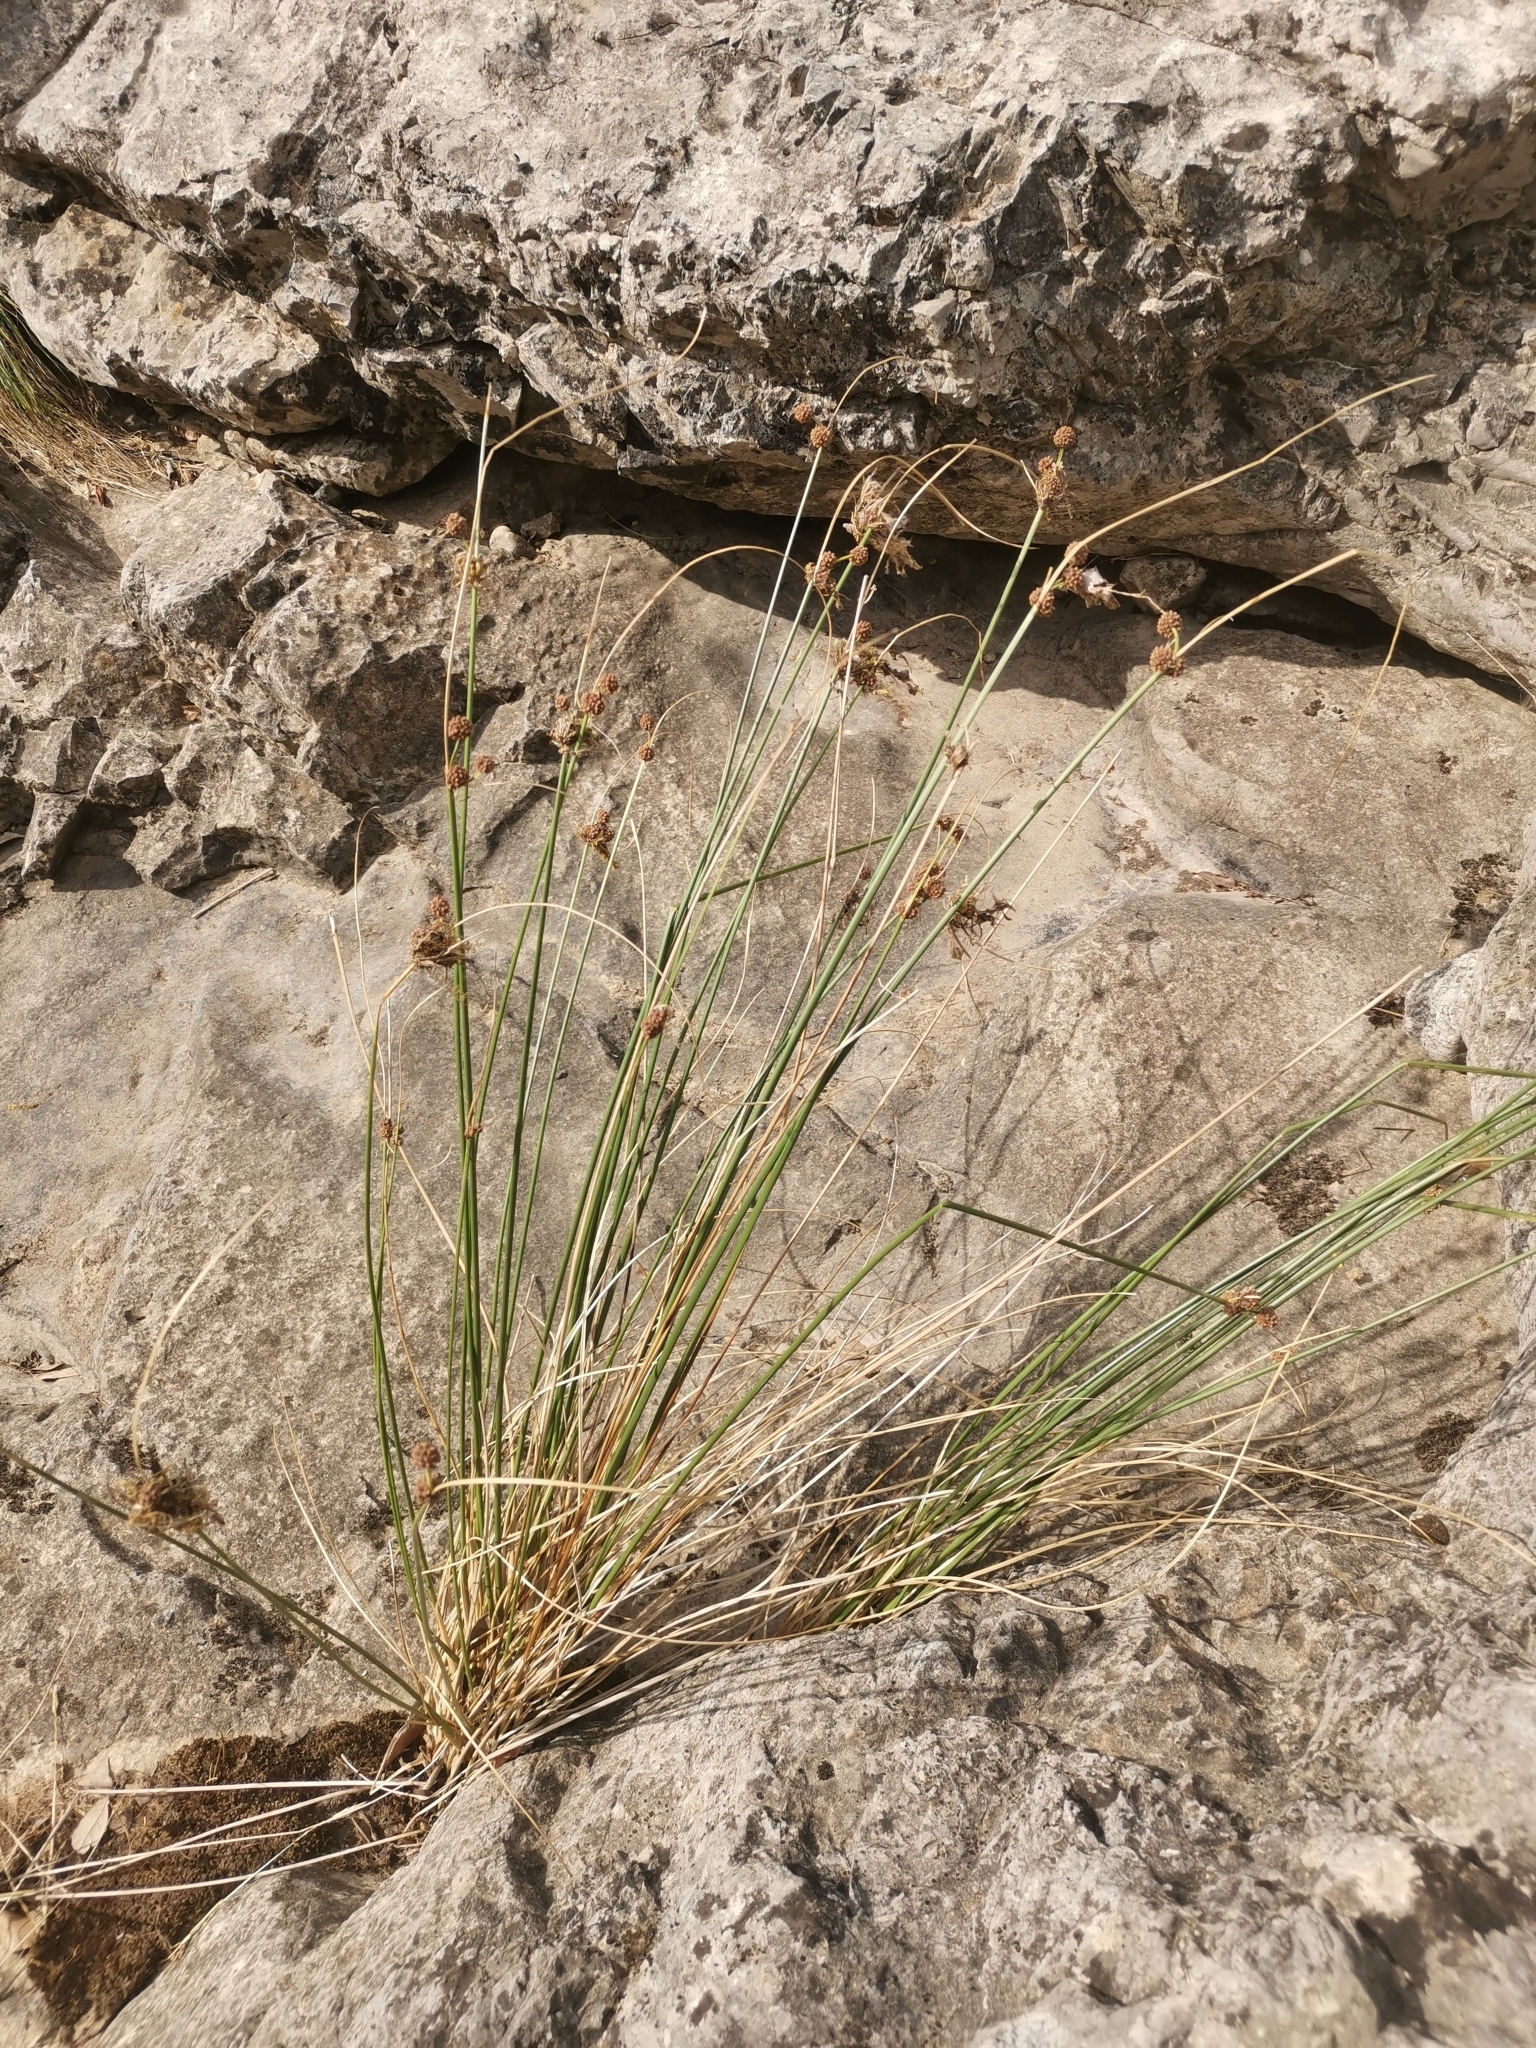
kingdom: Plantae
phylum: Tracheophyta
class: Liliopsida
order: Poales
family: Cyperaceae
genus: Scirpoides
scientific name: Scirpoides holoschoenus
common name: Round-headed club-rush
